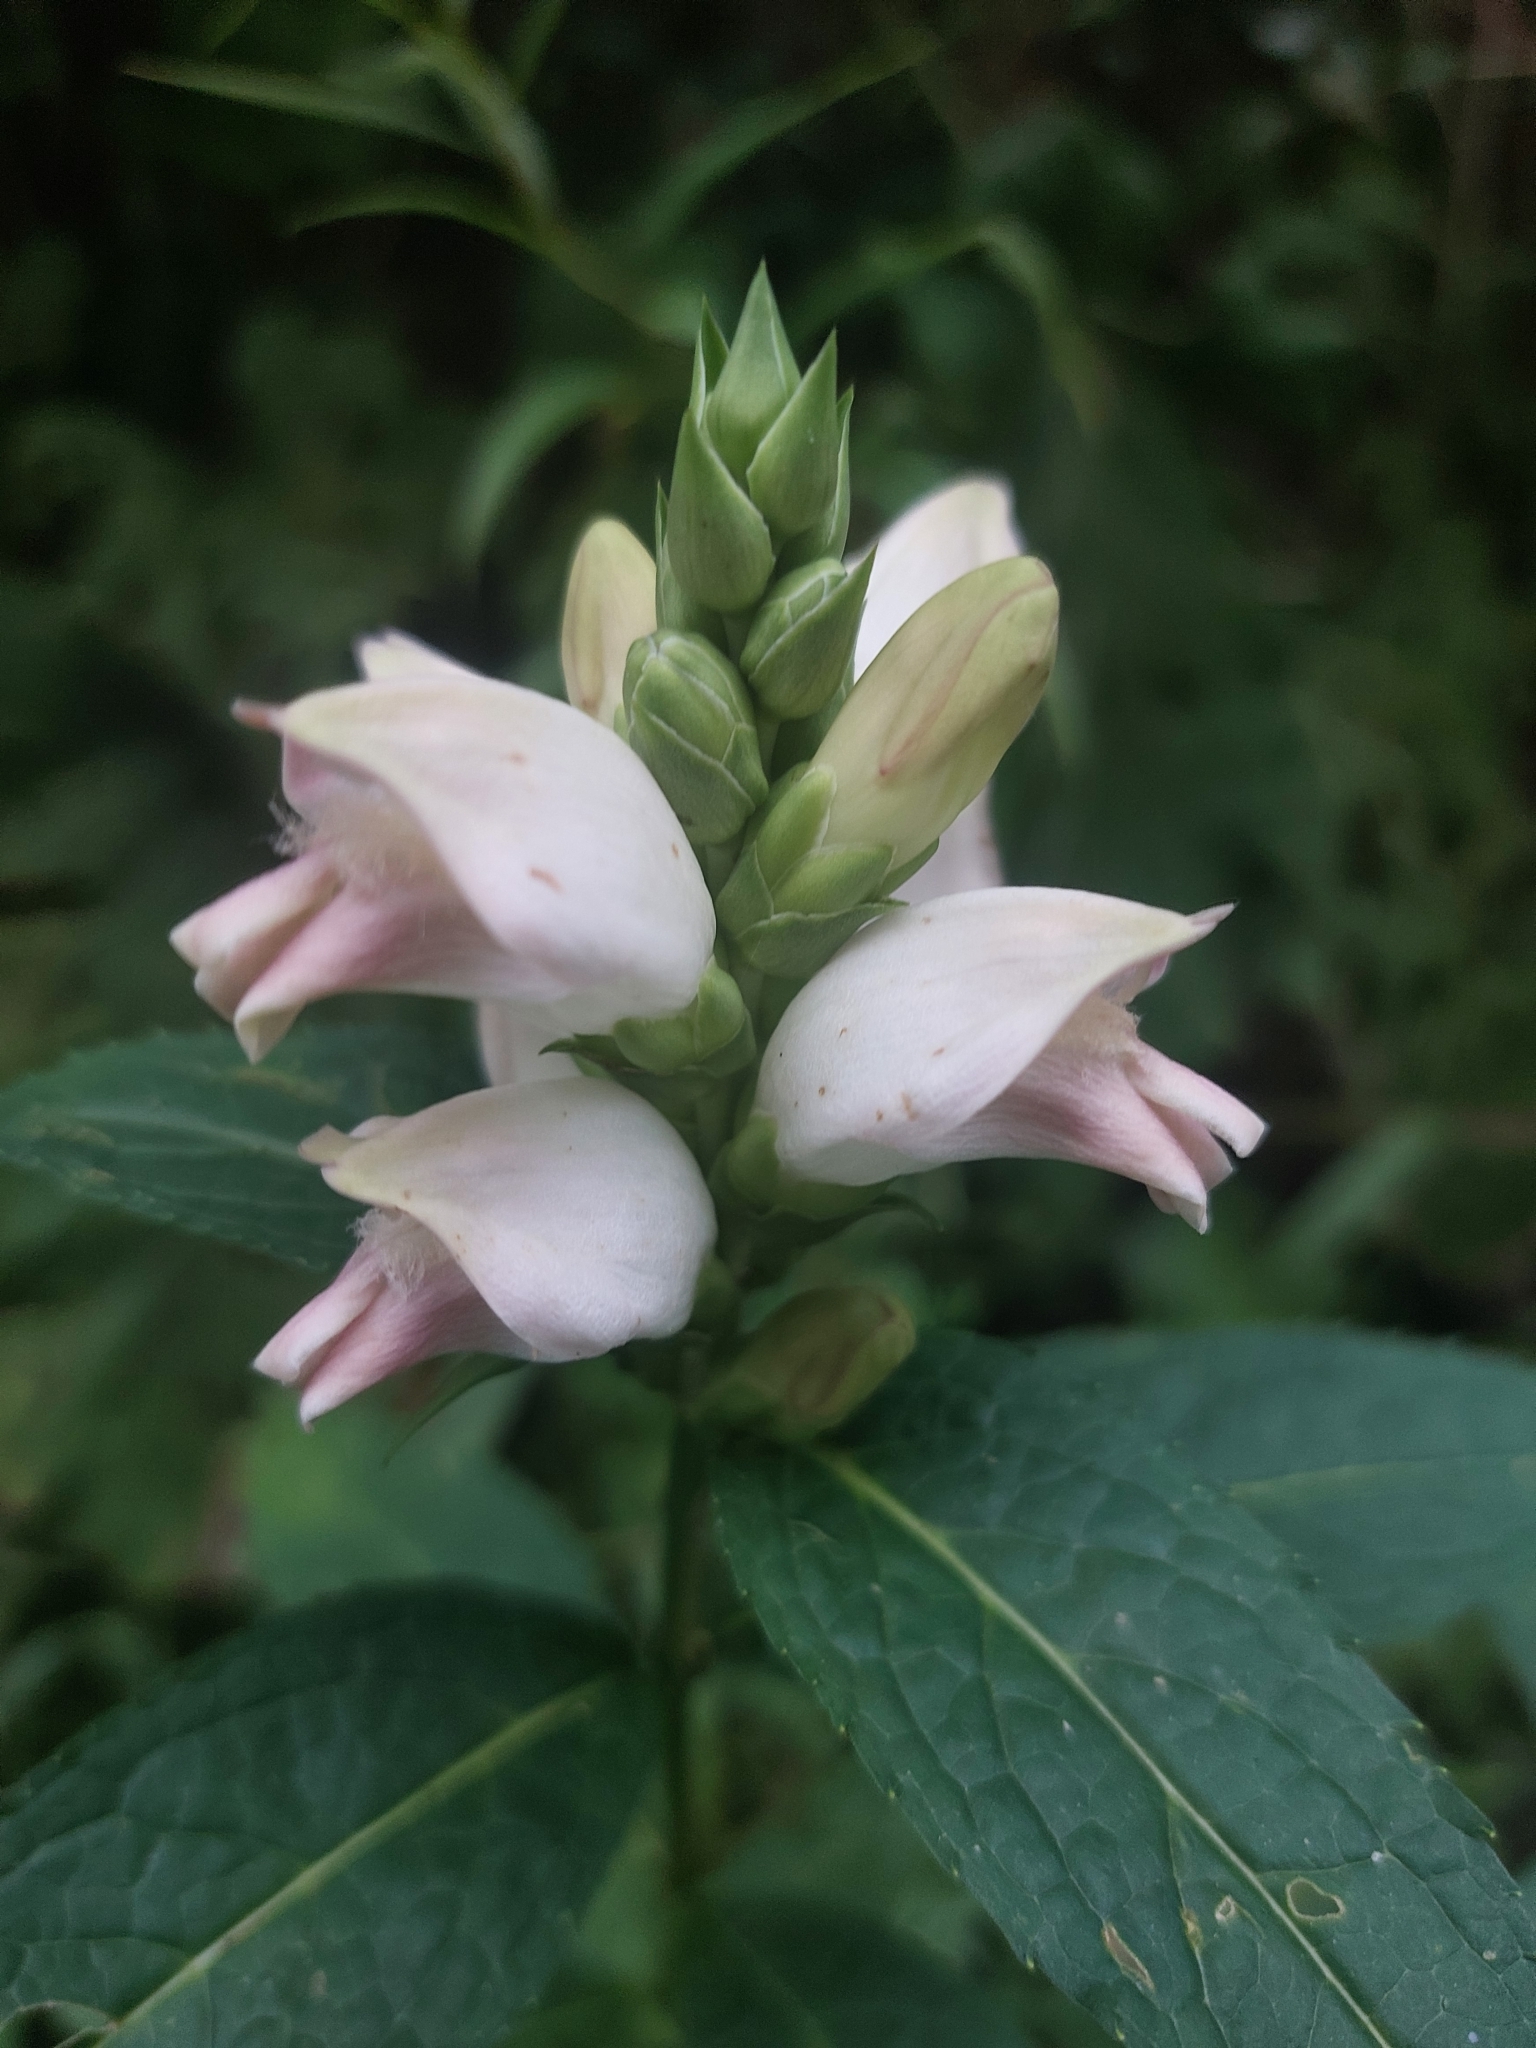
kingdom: Plantae
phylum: Tracheophyta
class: Magnoliopsida
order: Lamiales
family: Plantaginaceae
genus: Chelone
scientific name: Chelone glabra
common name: Snakehead
